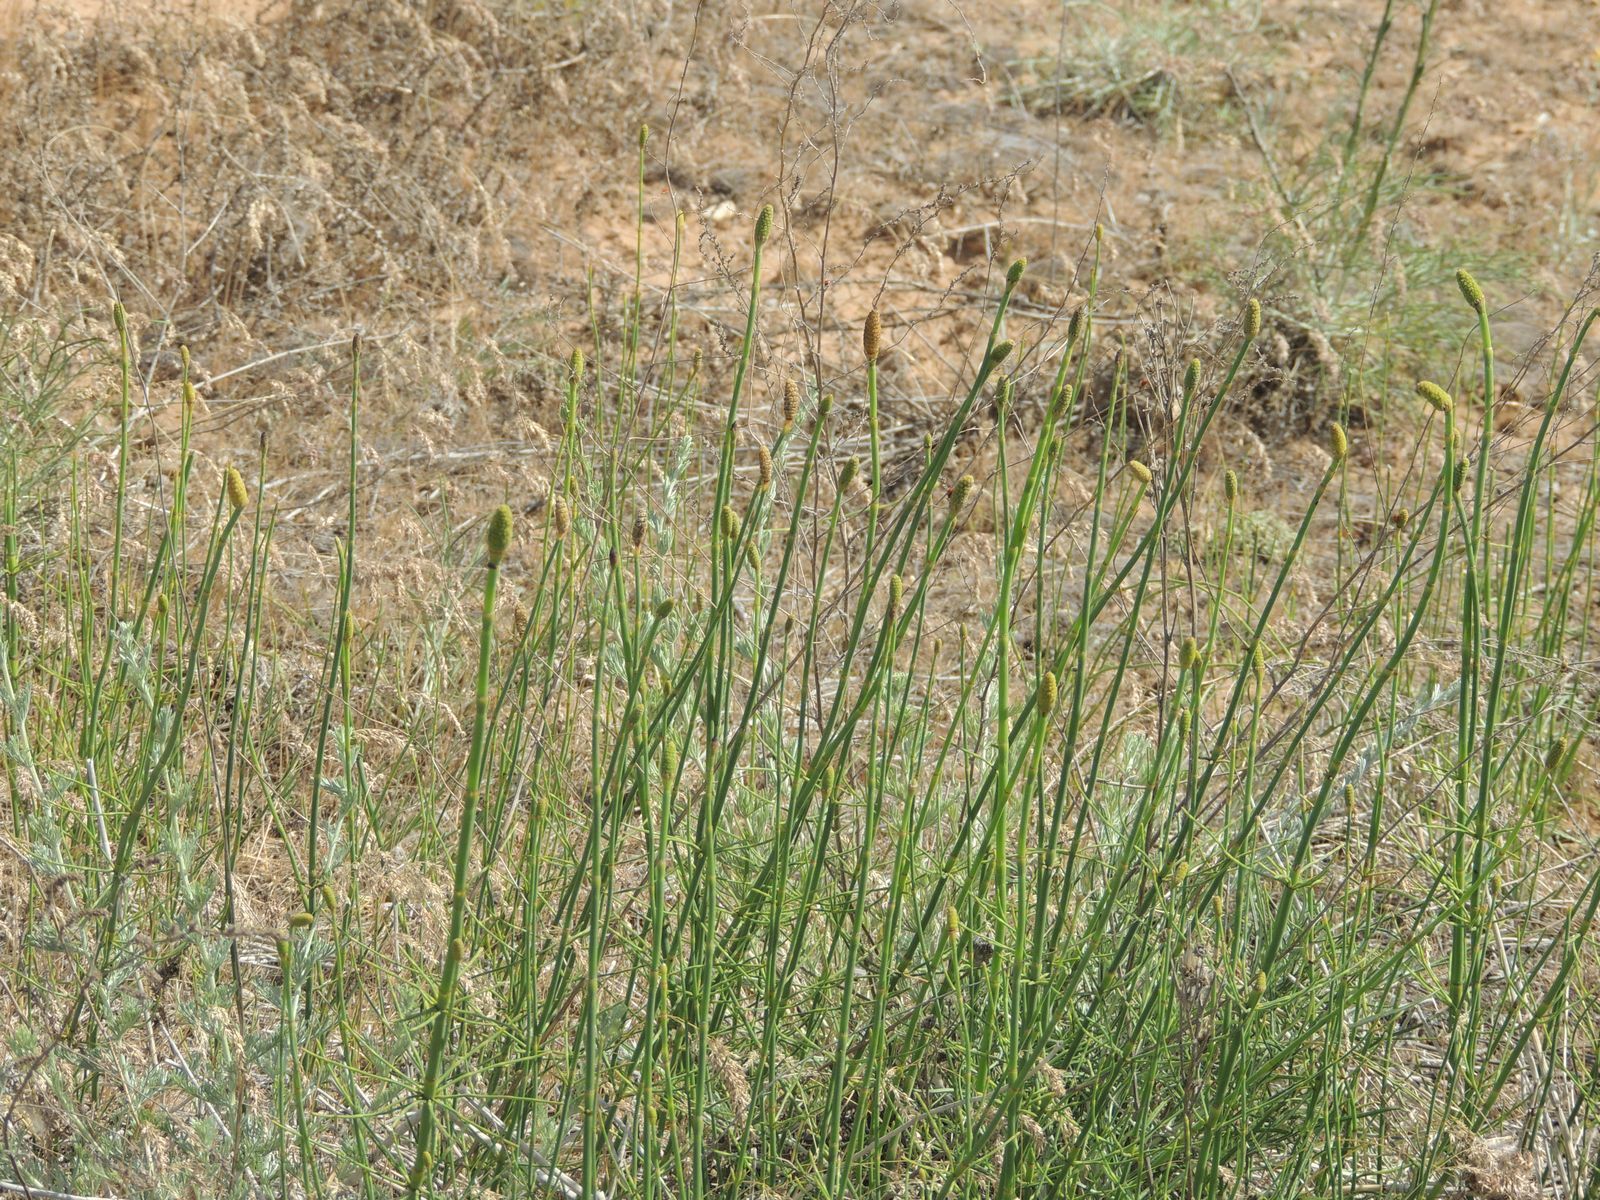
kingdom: Plantae
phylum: Tracheophyta
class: Polypodiopsida
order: Equisetales
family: Equisetaceae
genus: Equisetum
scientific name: Equisetum ramosissimum
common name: Branched horsetail
